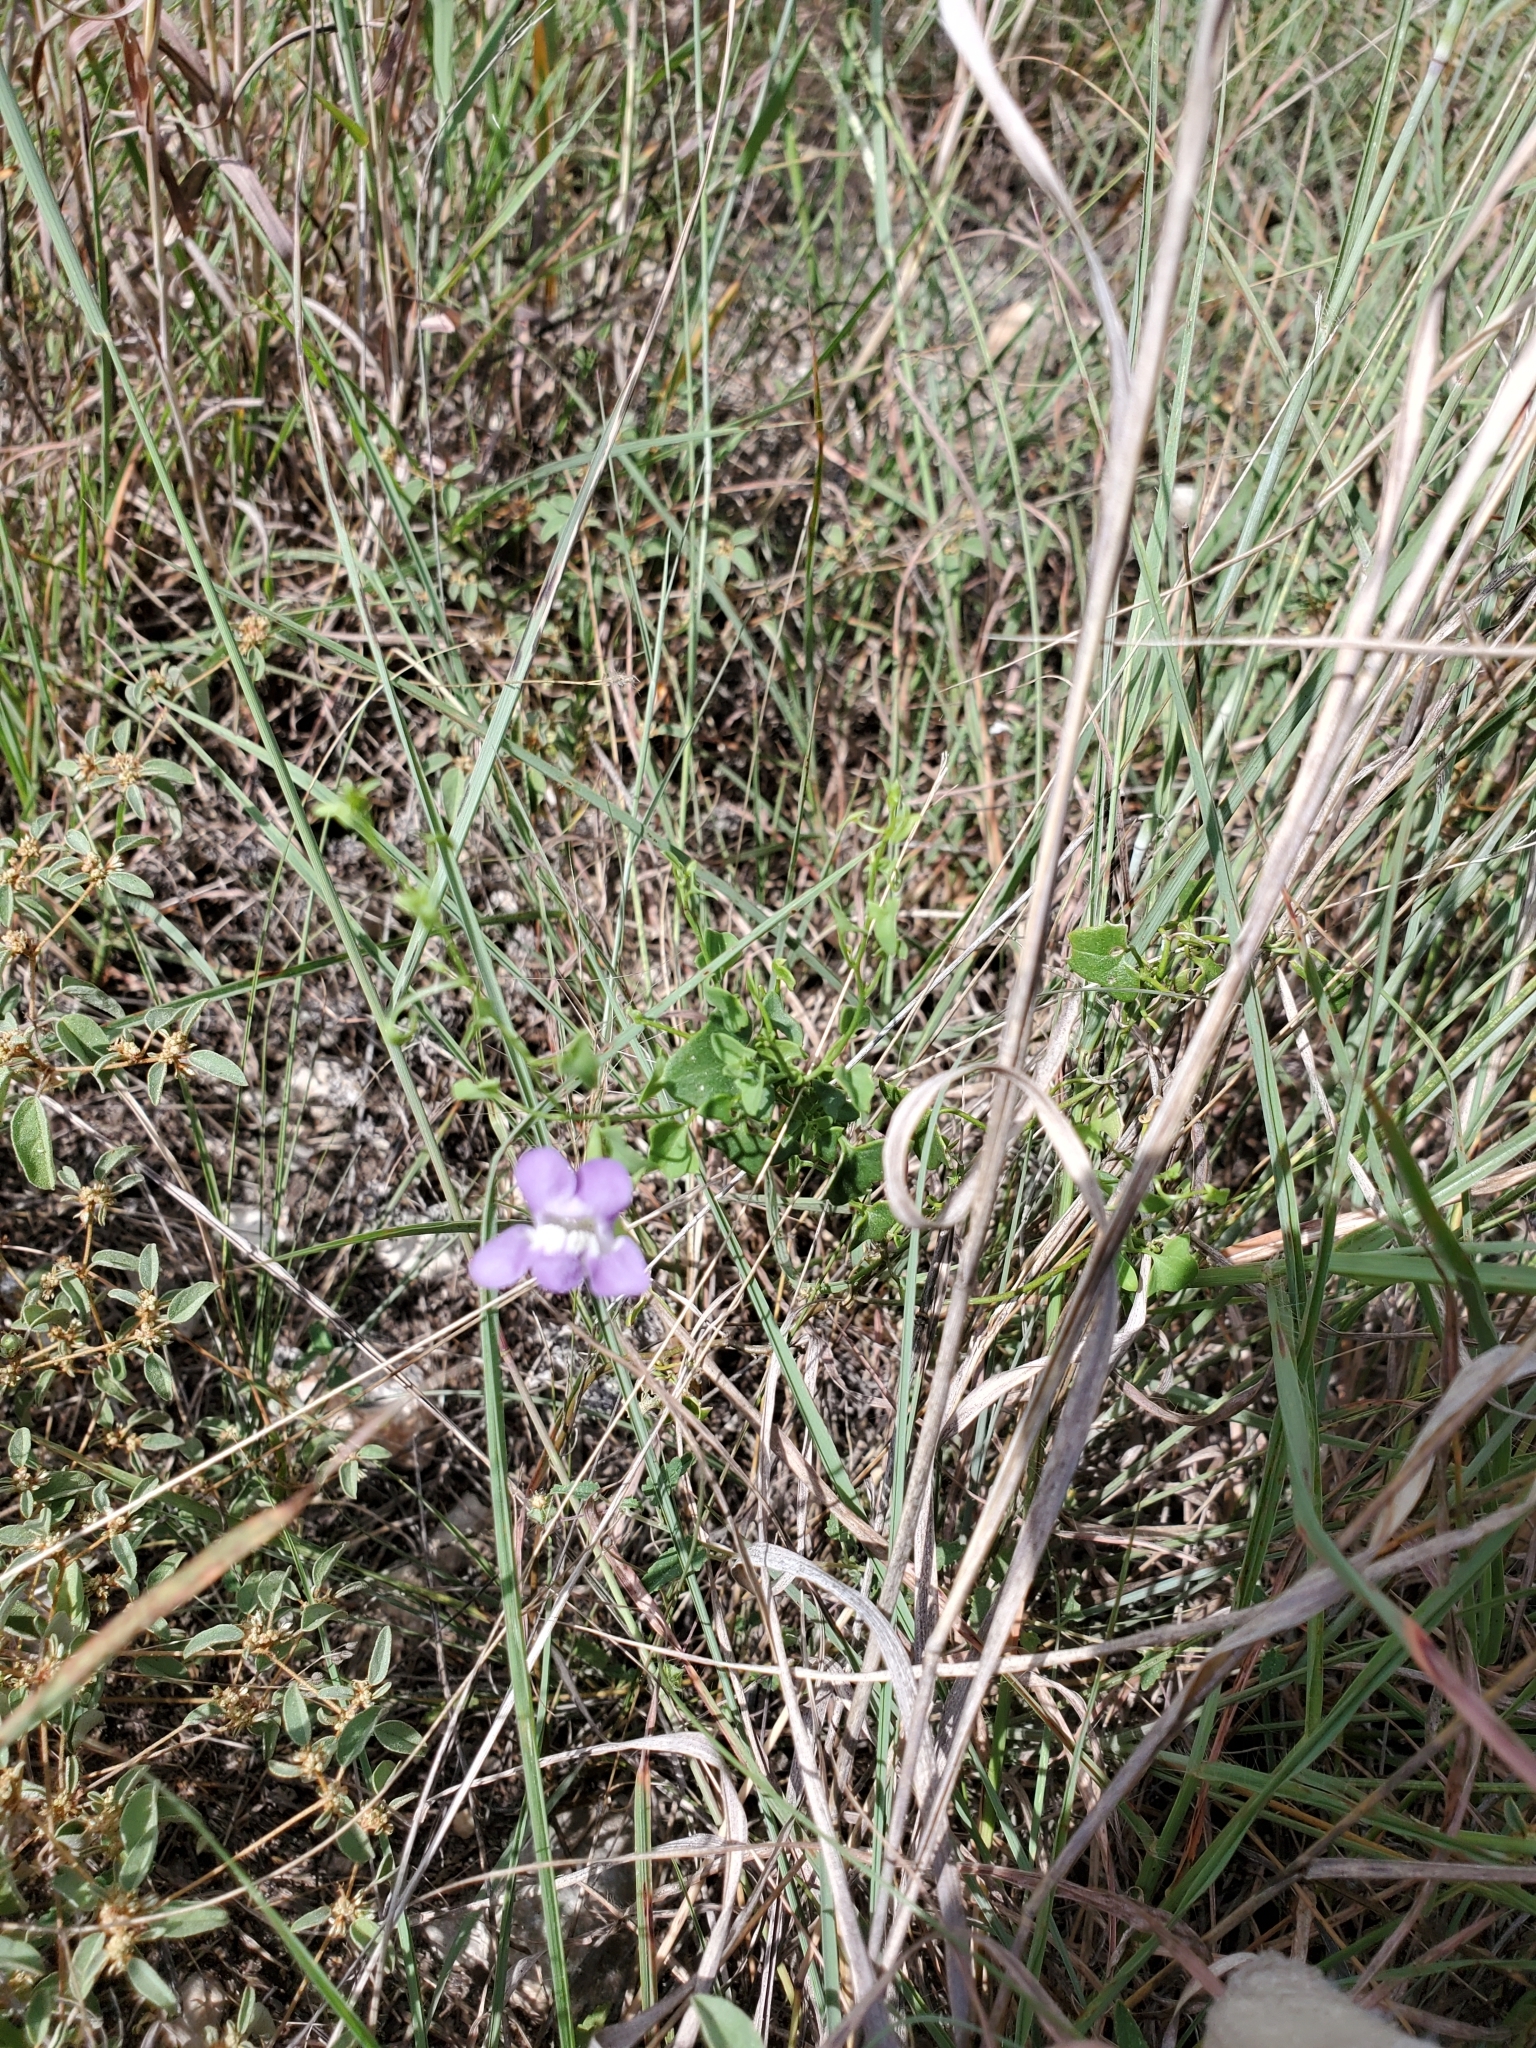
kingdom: Plantae
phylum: Tracheophyta
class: Magnoliopsida
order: Lamiales
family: Plantaginaceae
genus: Maurandella
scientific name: Maurandella antirrhiniflora
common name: Violet twining-snapdragon
